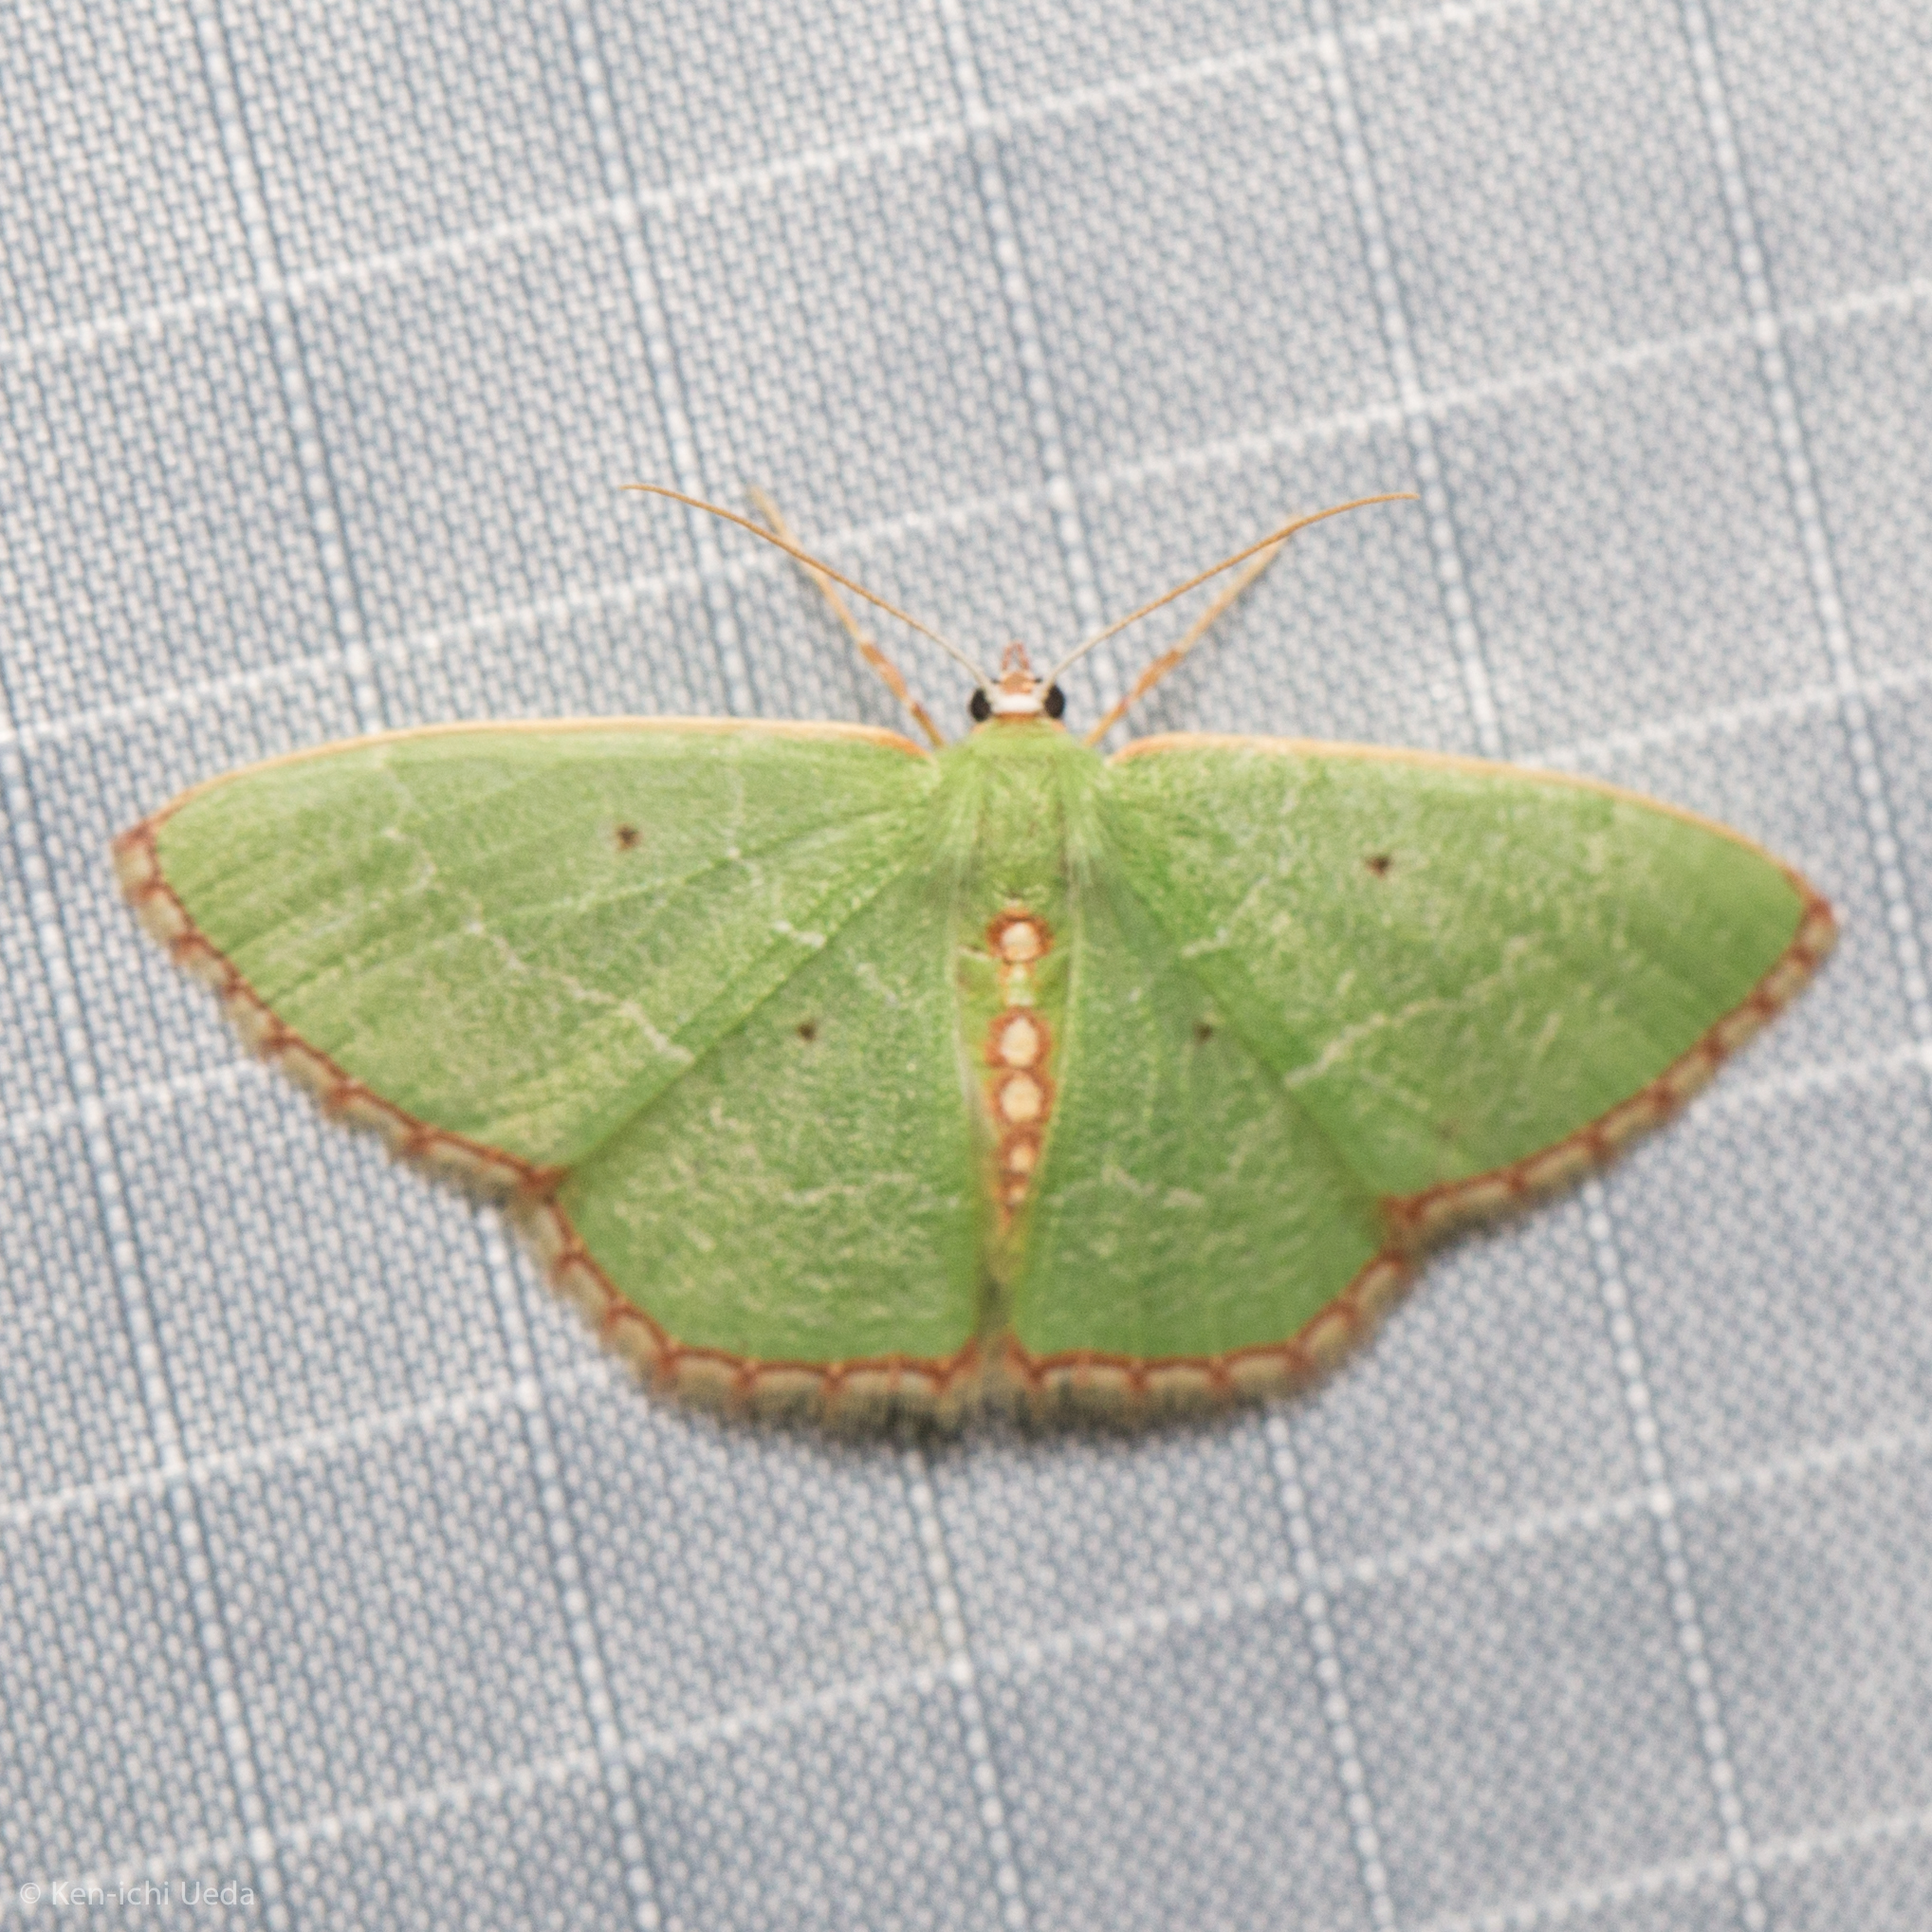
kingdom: Animalia
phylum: Arthropoda
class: Insecta
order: Lepidoptera
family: Geometridae
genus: Nemoria
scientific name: Nemoria lixaria
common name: Red-bordered emerald
